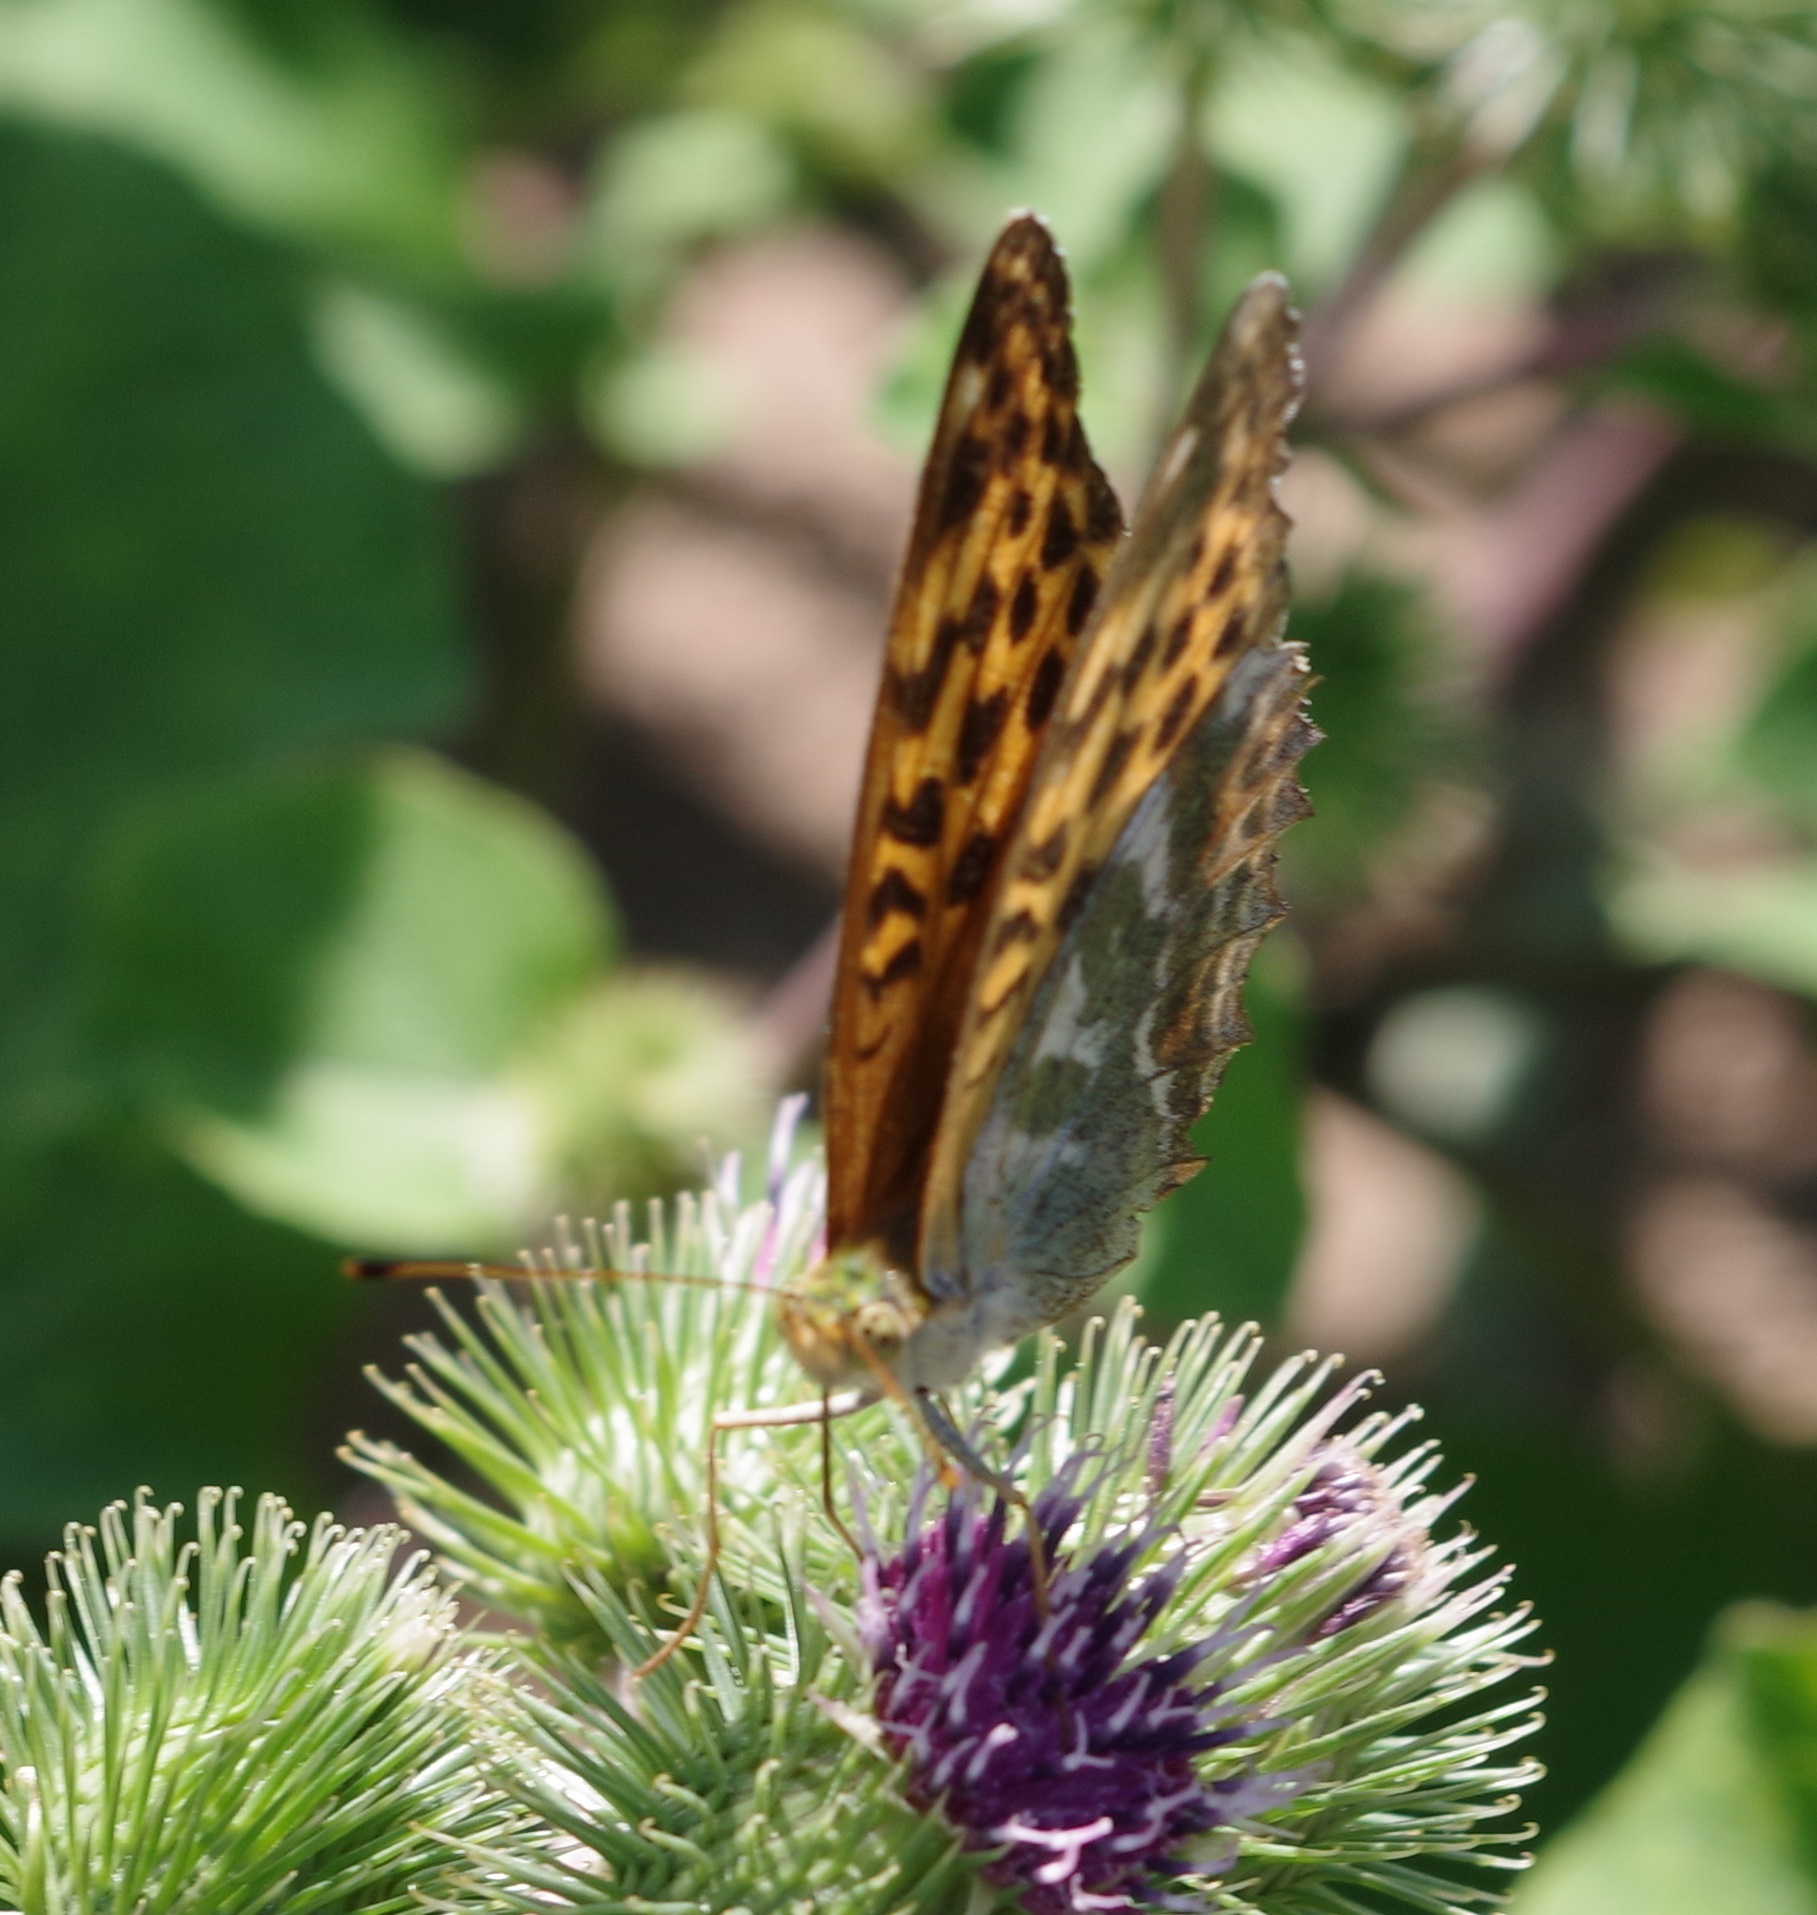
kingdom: Animalia
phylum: Arthropoda
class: Insecta
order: Lepidoptera
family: Nymphalidae
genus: Argynnis
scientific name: Argynnis paphia
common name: Silver-washed fritillary
